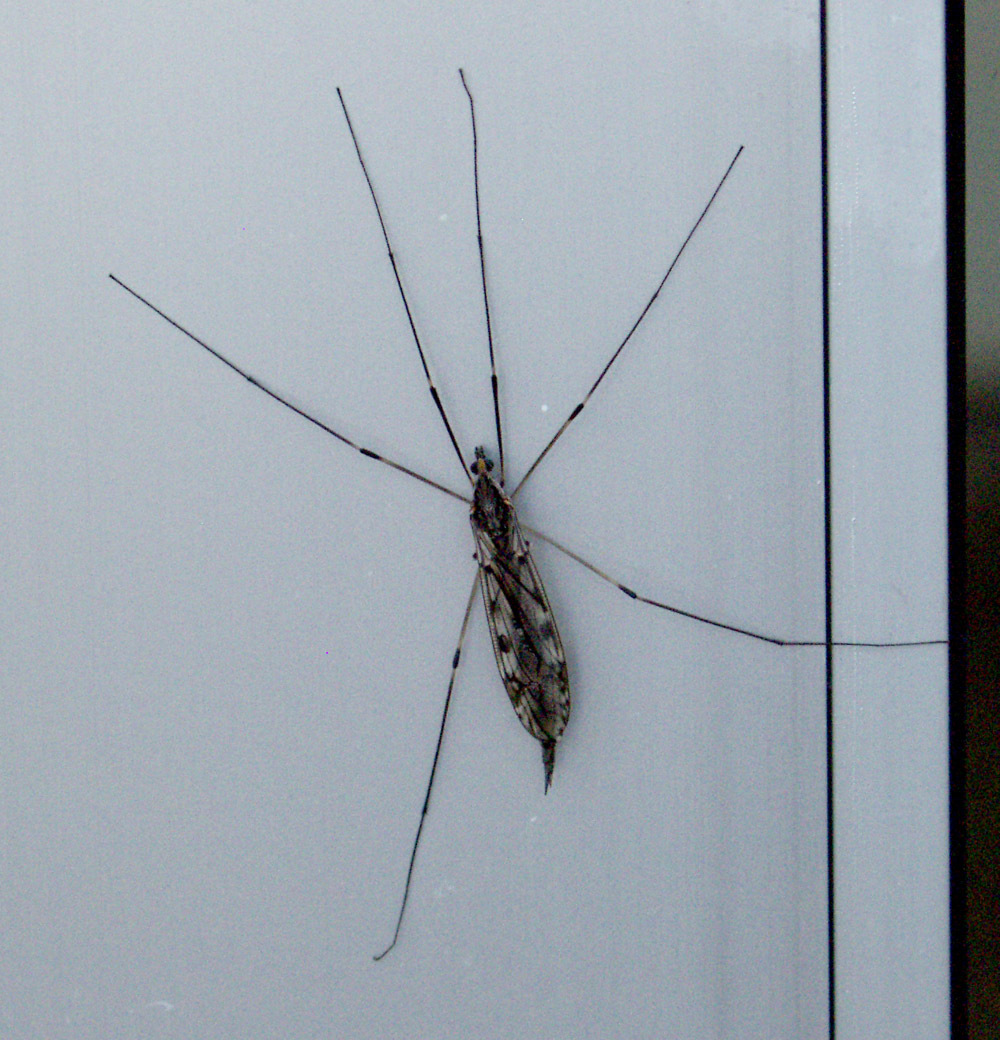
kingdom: Animalia
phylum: Arthropoda
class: Insecta
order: Diptera
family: Tipulidae
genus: Tipula
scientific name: Tipula abdominalis
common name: Giant crane fly
